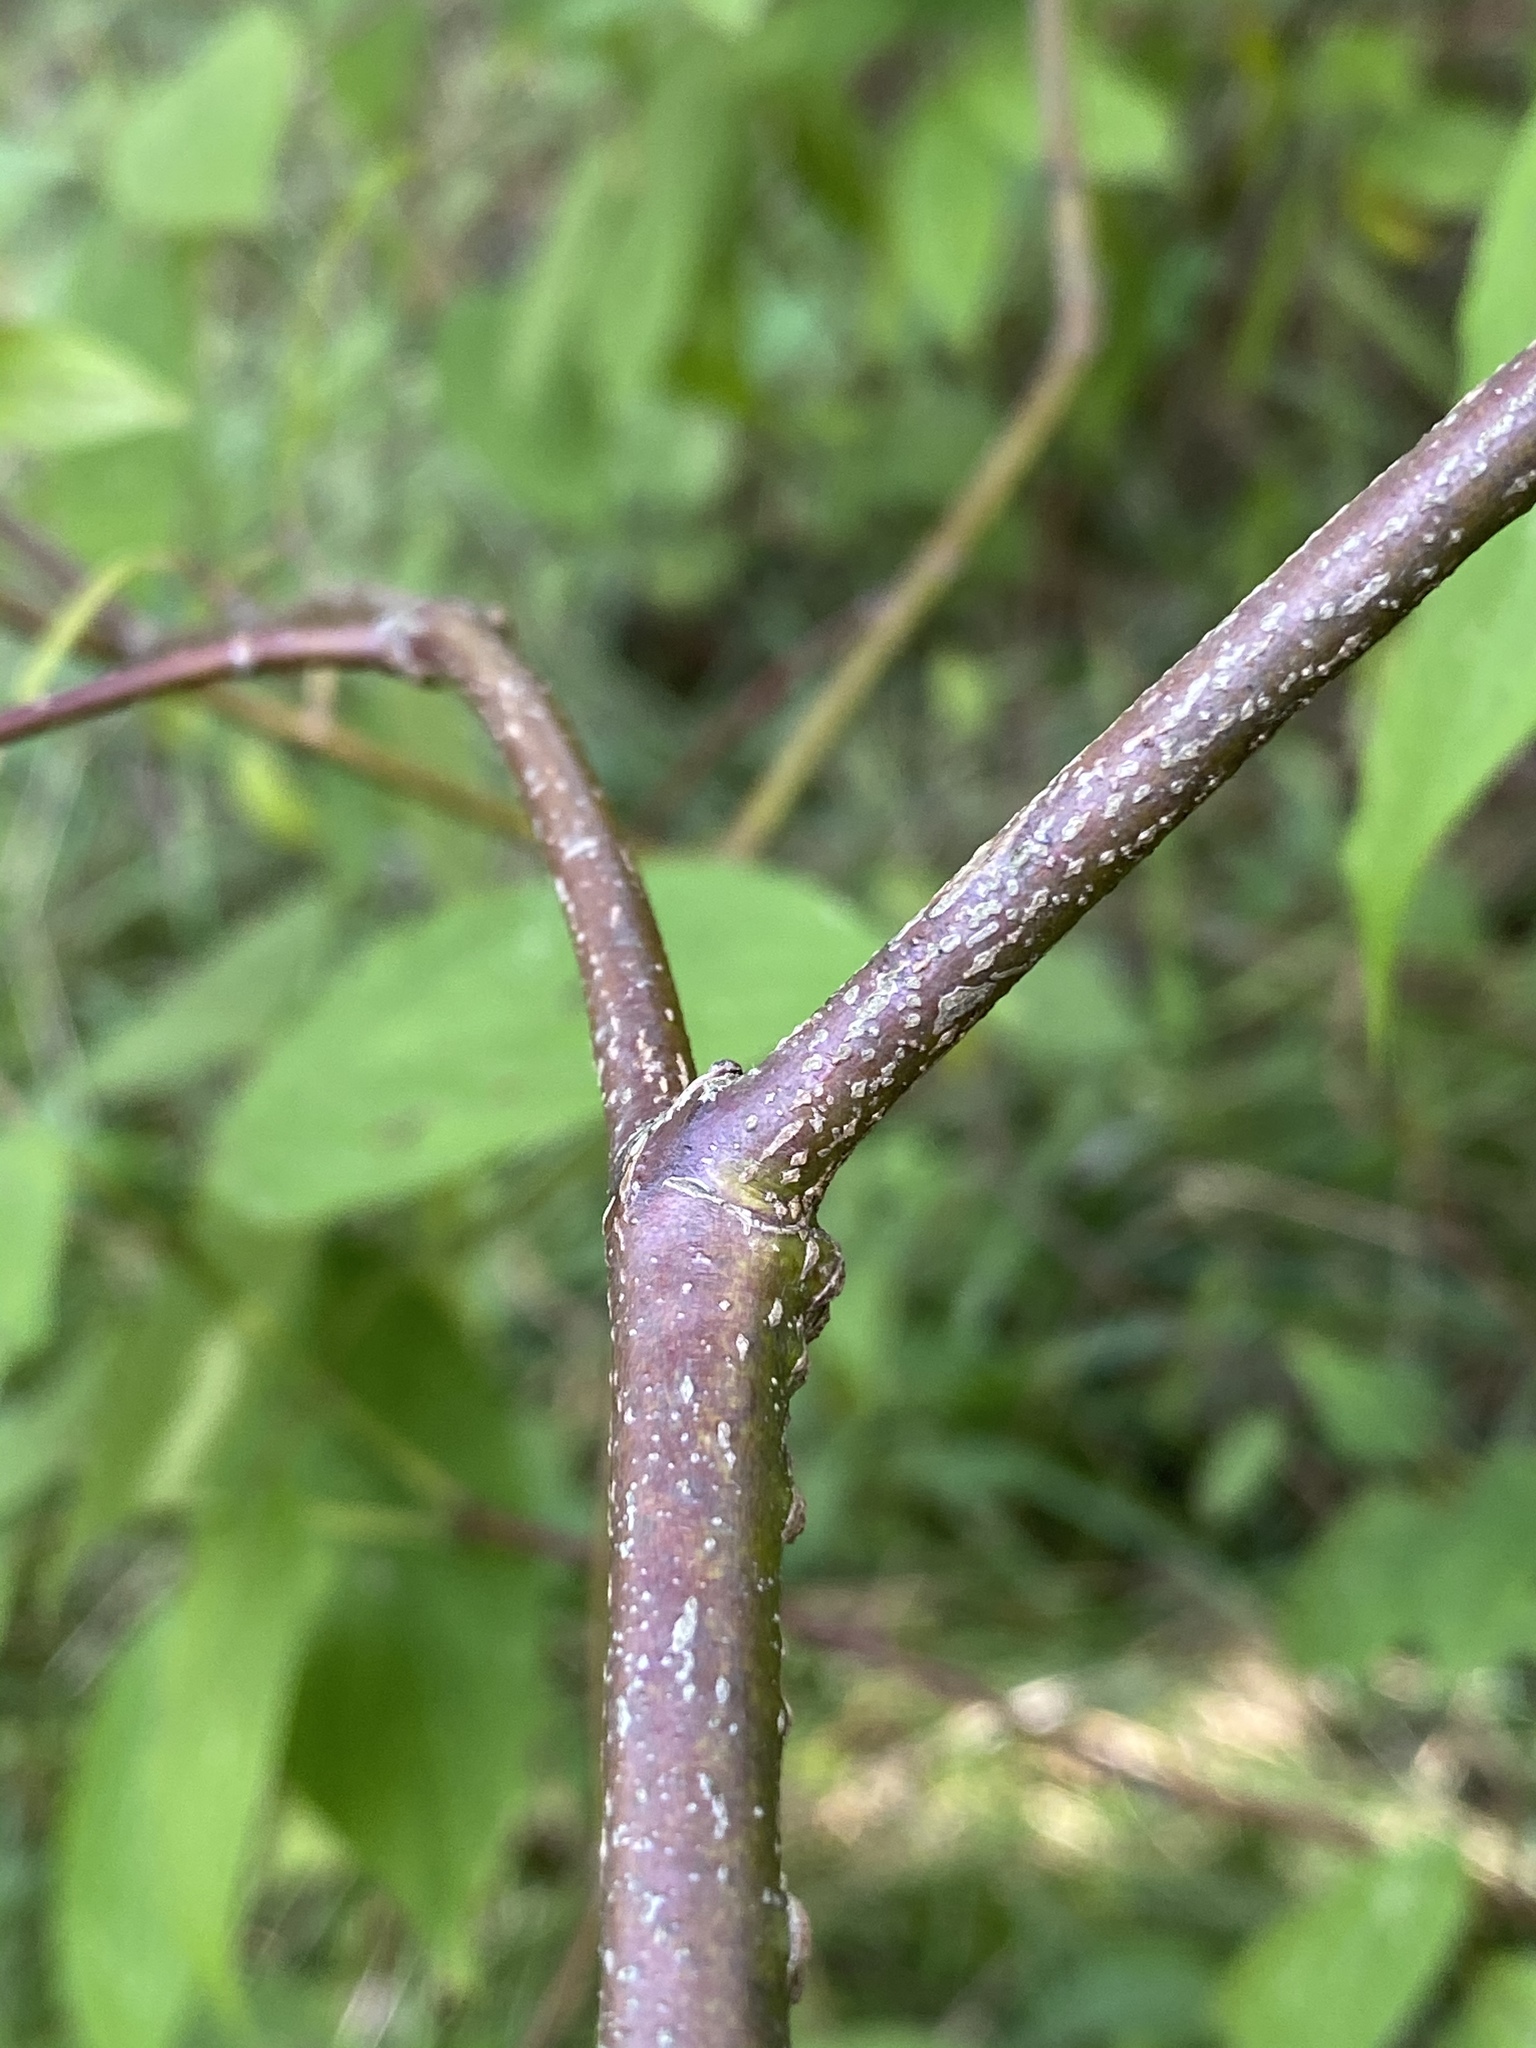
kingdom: Plantae
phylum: Tracheophyta
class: Magnoliopsida
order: Cornales
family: Cornaceae
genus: Cornus
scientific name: Cornus amomum
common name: Silky dogwood
